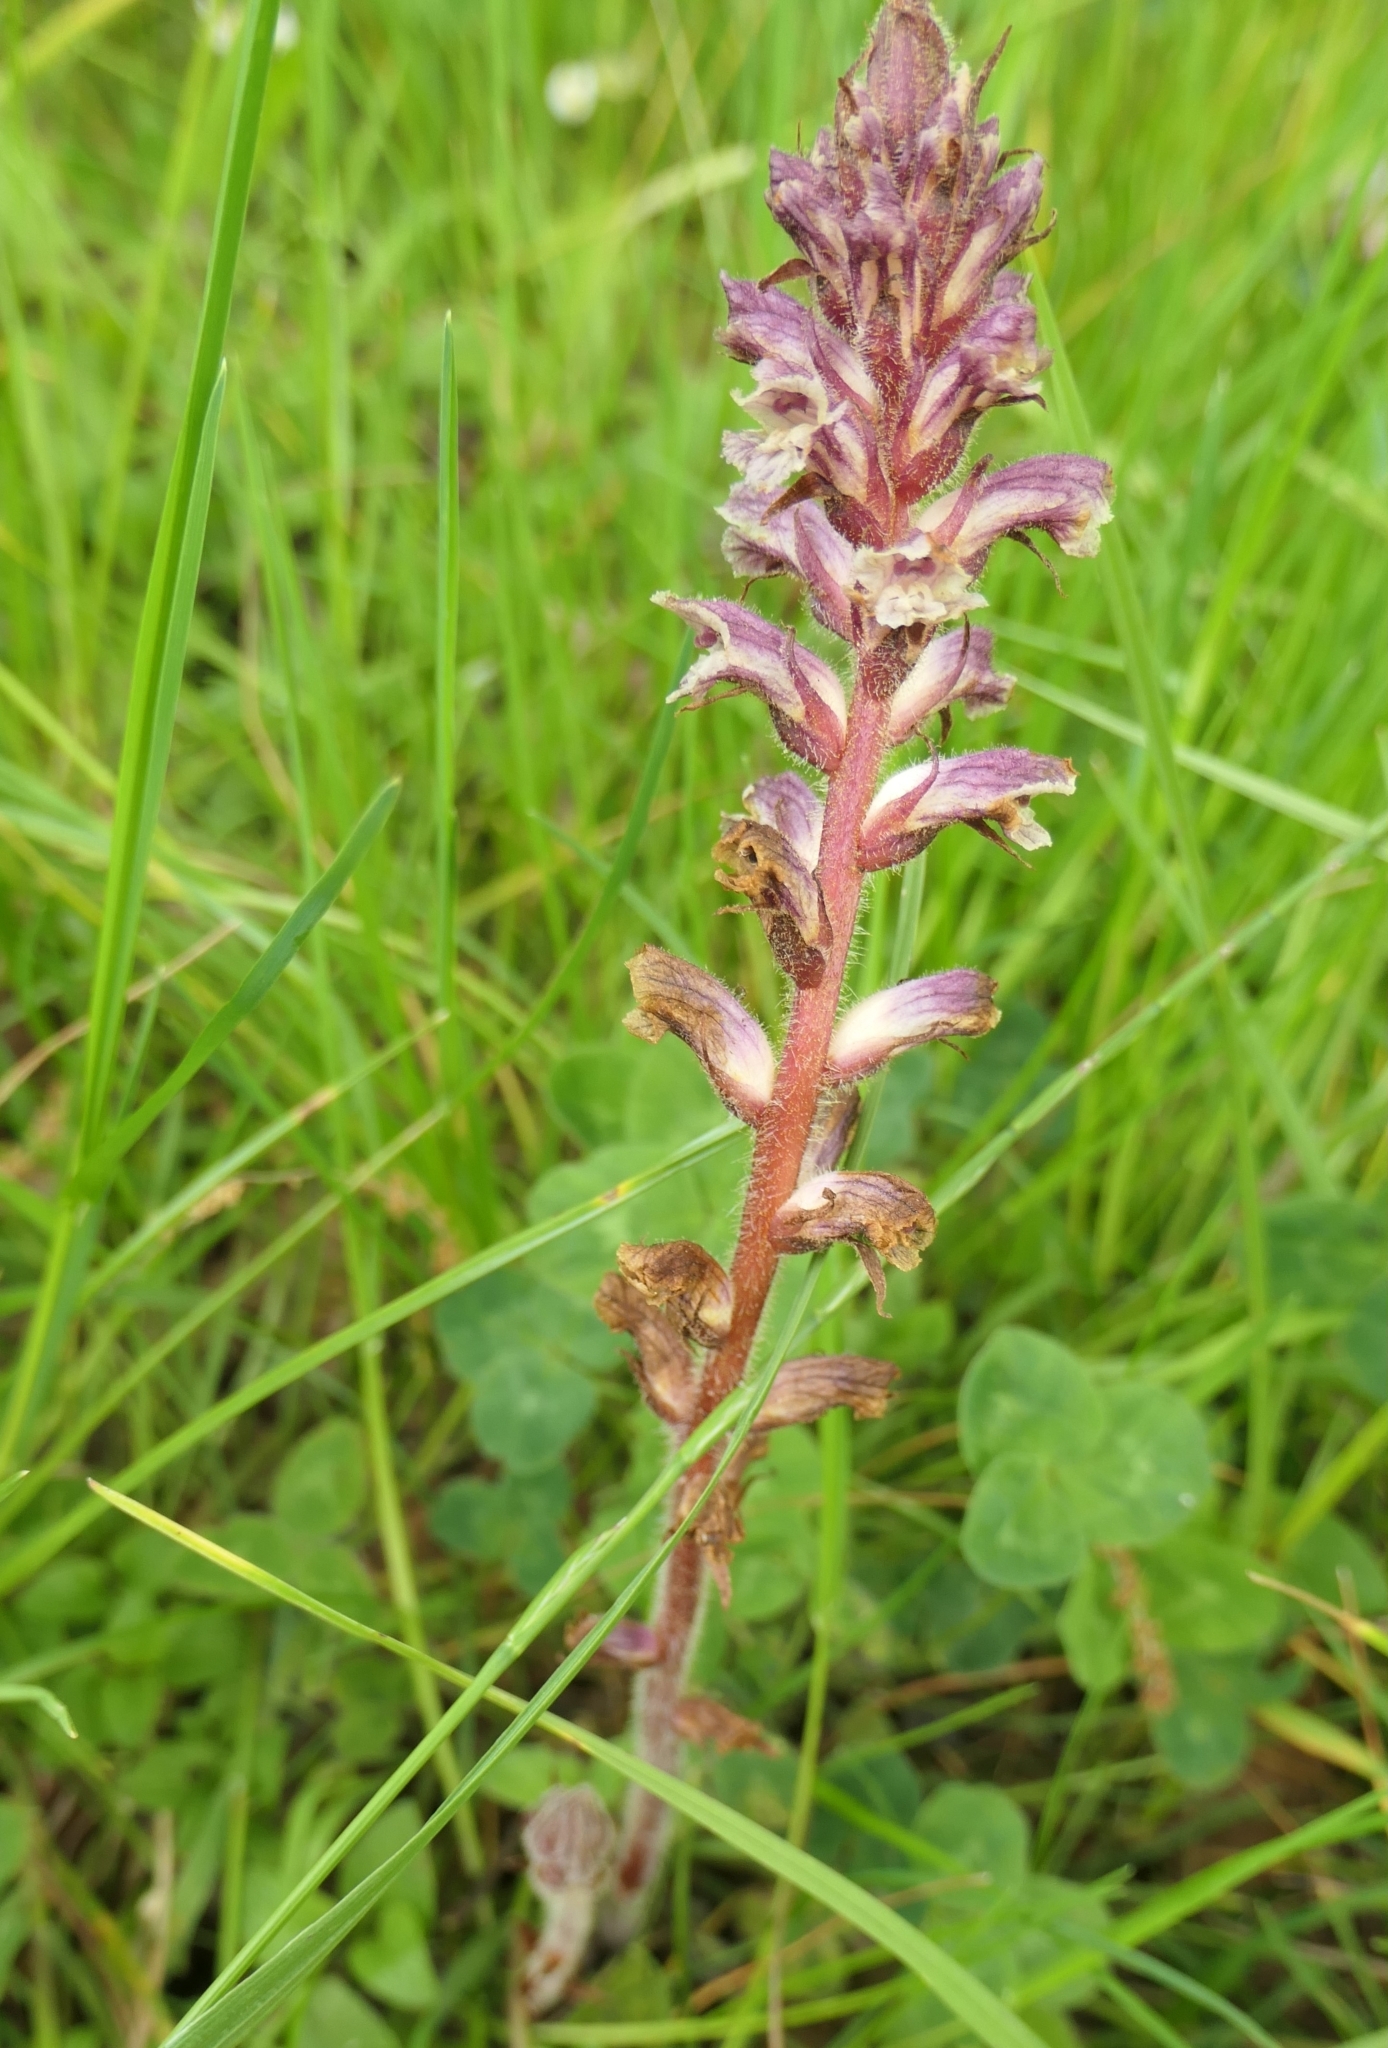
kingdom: Plantae
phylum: Tracheophyta
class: Magnoliopsida
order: Lamiales
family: Orobanchaceae
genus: Orobanche
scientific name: Orobanche minor
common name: Common broomrape
